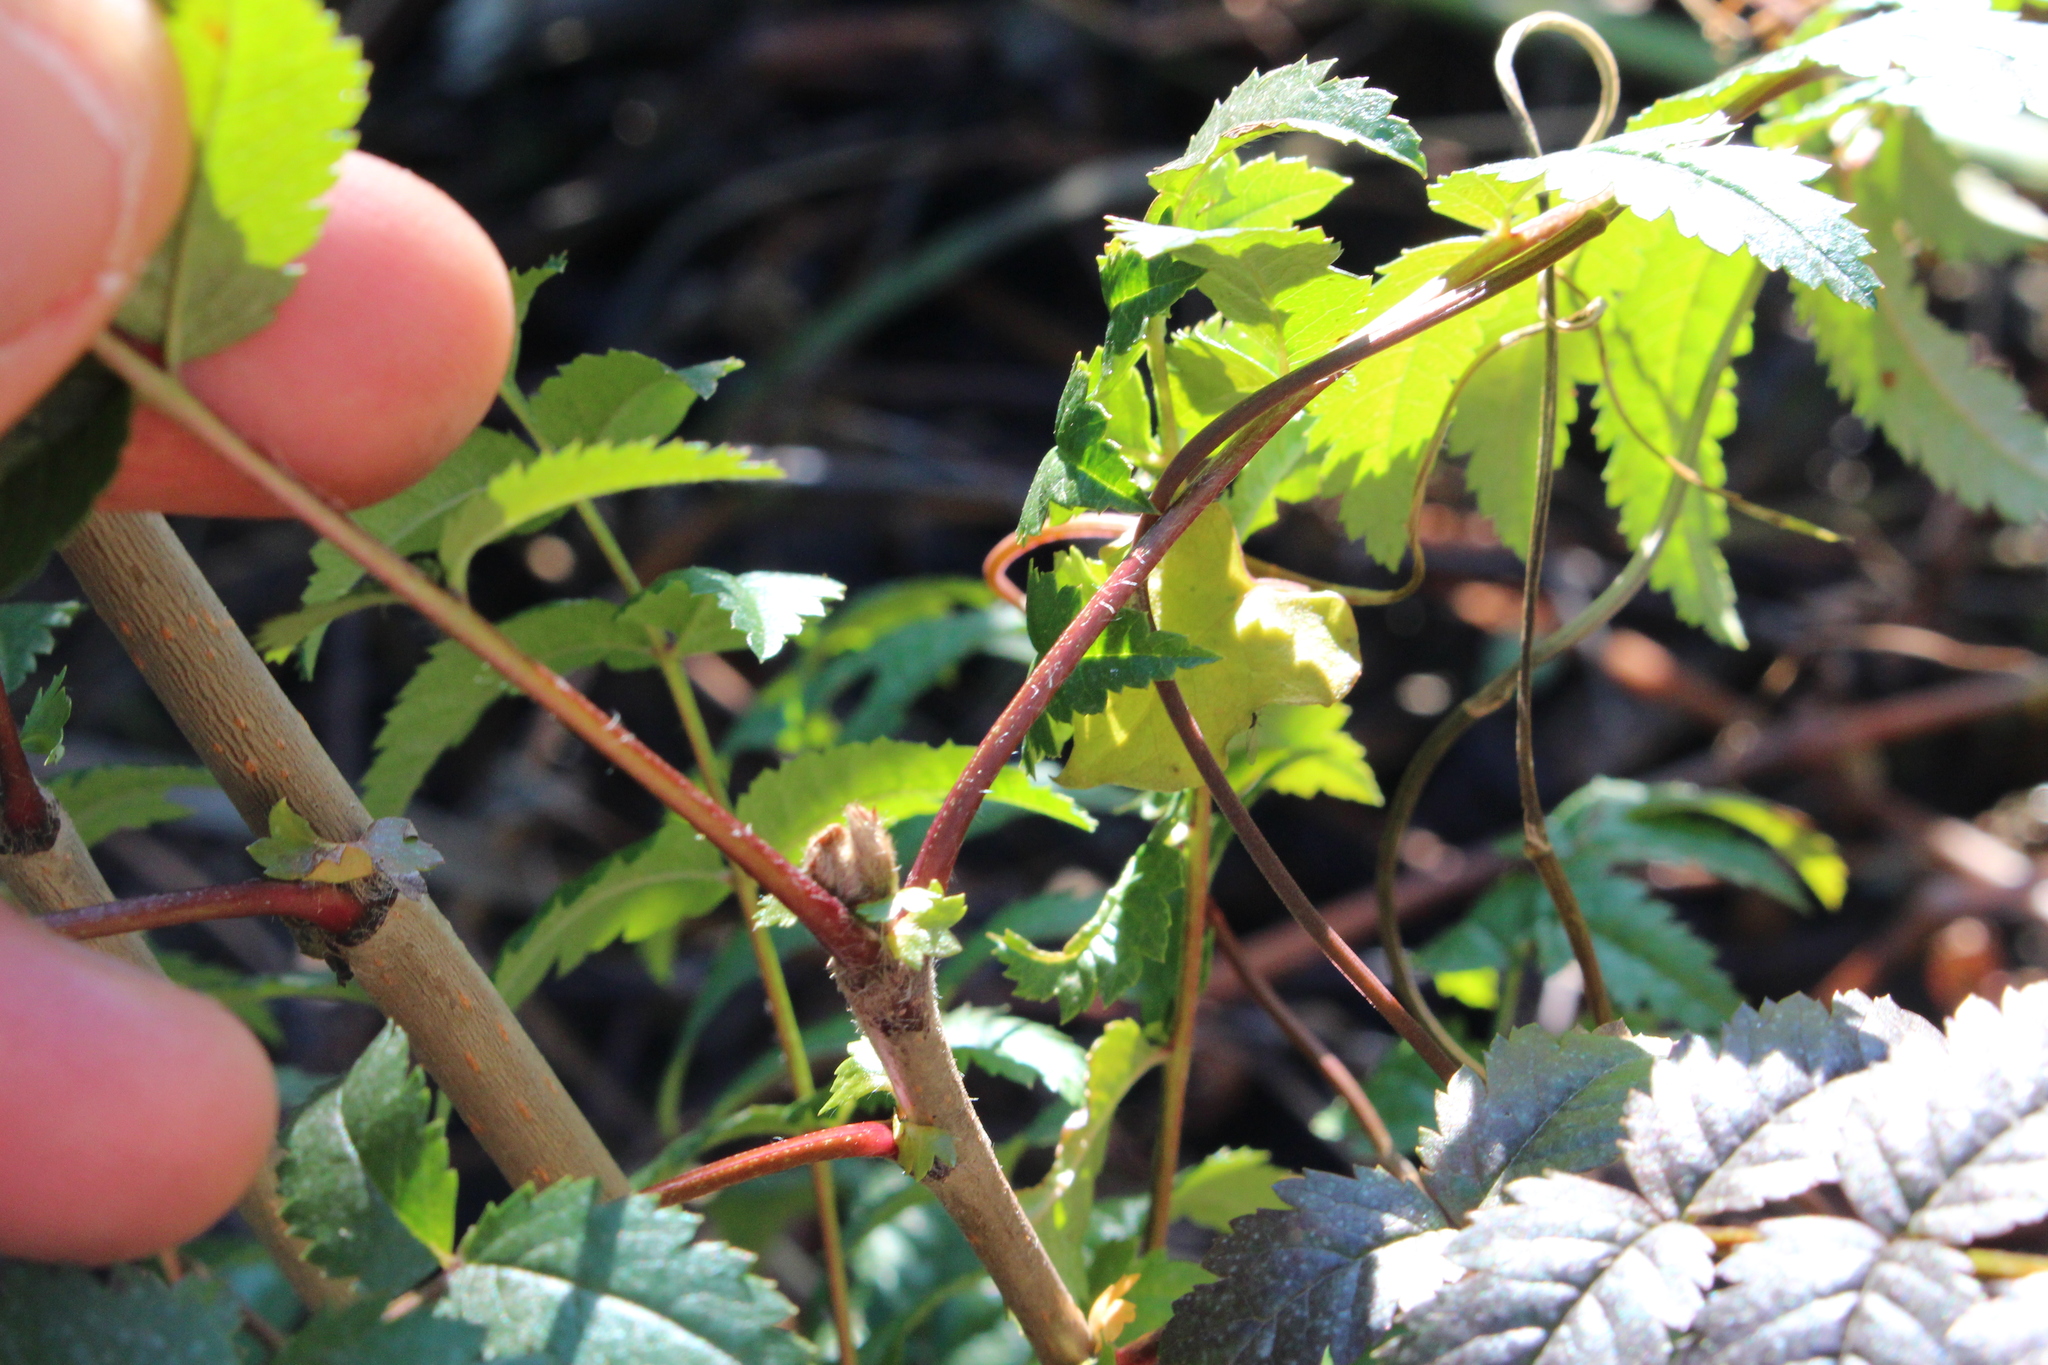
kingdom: Plantae
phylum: Tracheophyta
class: Magnoliopsida
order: Sapindales
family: Anacardiaceae
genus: Rhus
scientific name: Rhus typhina
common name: Staghorn sumac
